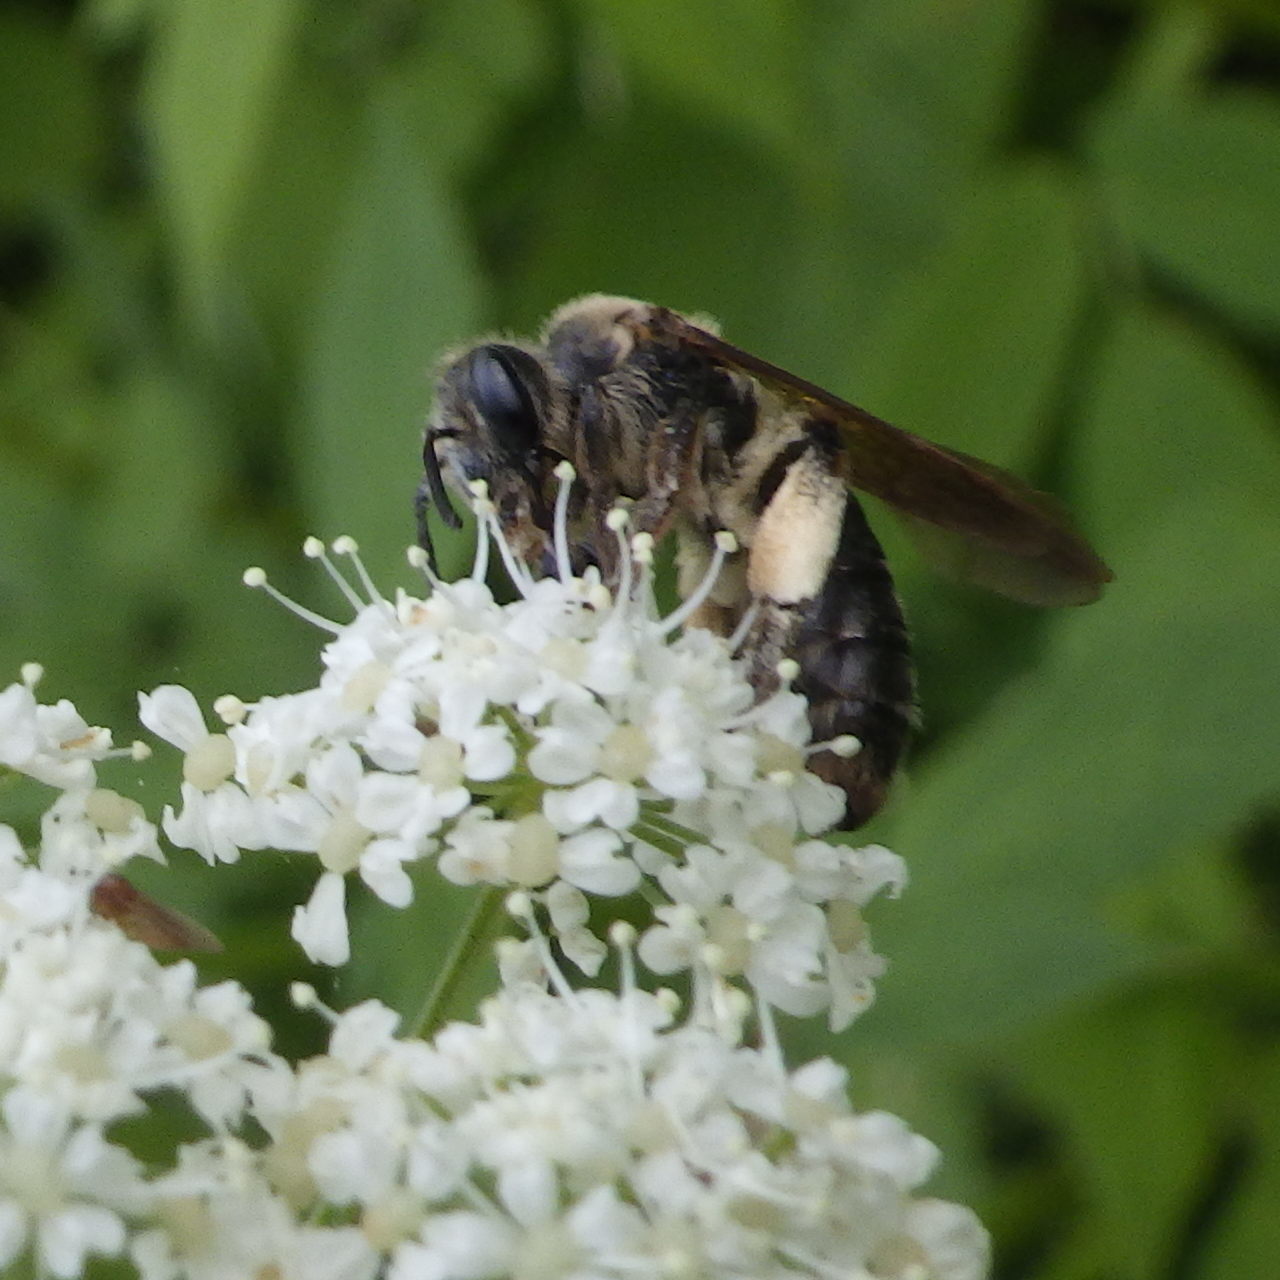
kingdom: Animalia
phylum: Arthropoda
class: Insecta
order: Hymenoptera
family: Andrenidae
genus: Andrena
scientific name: Andrena crataegi
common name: Hawthorn mining bee
